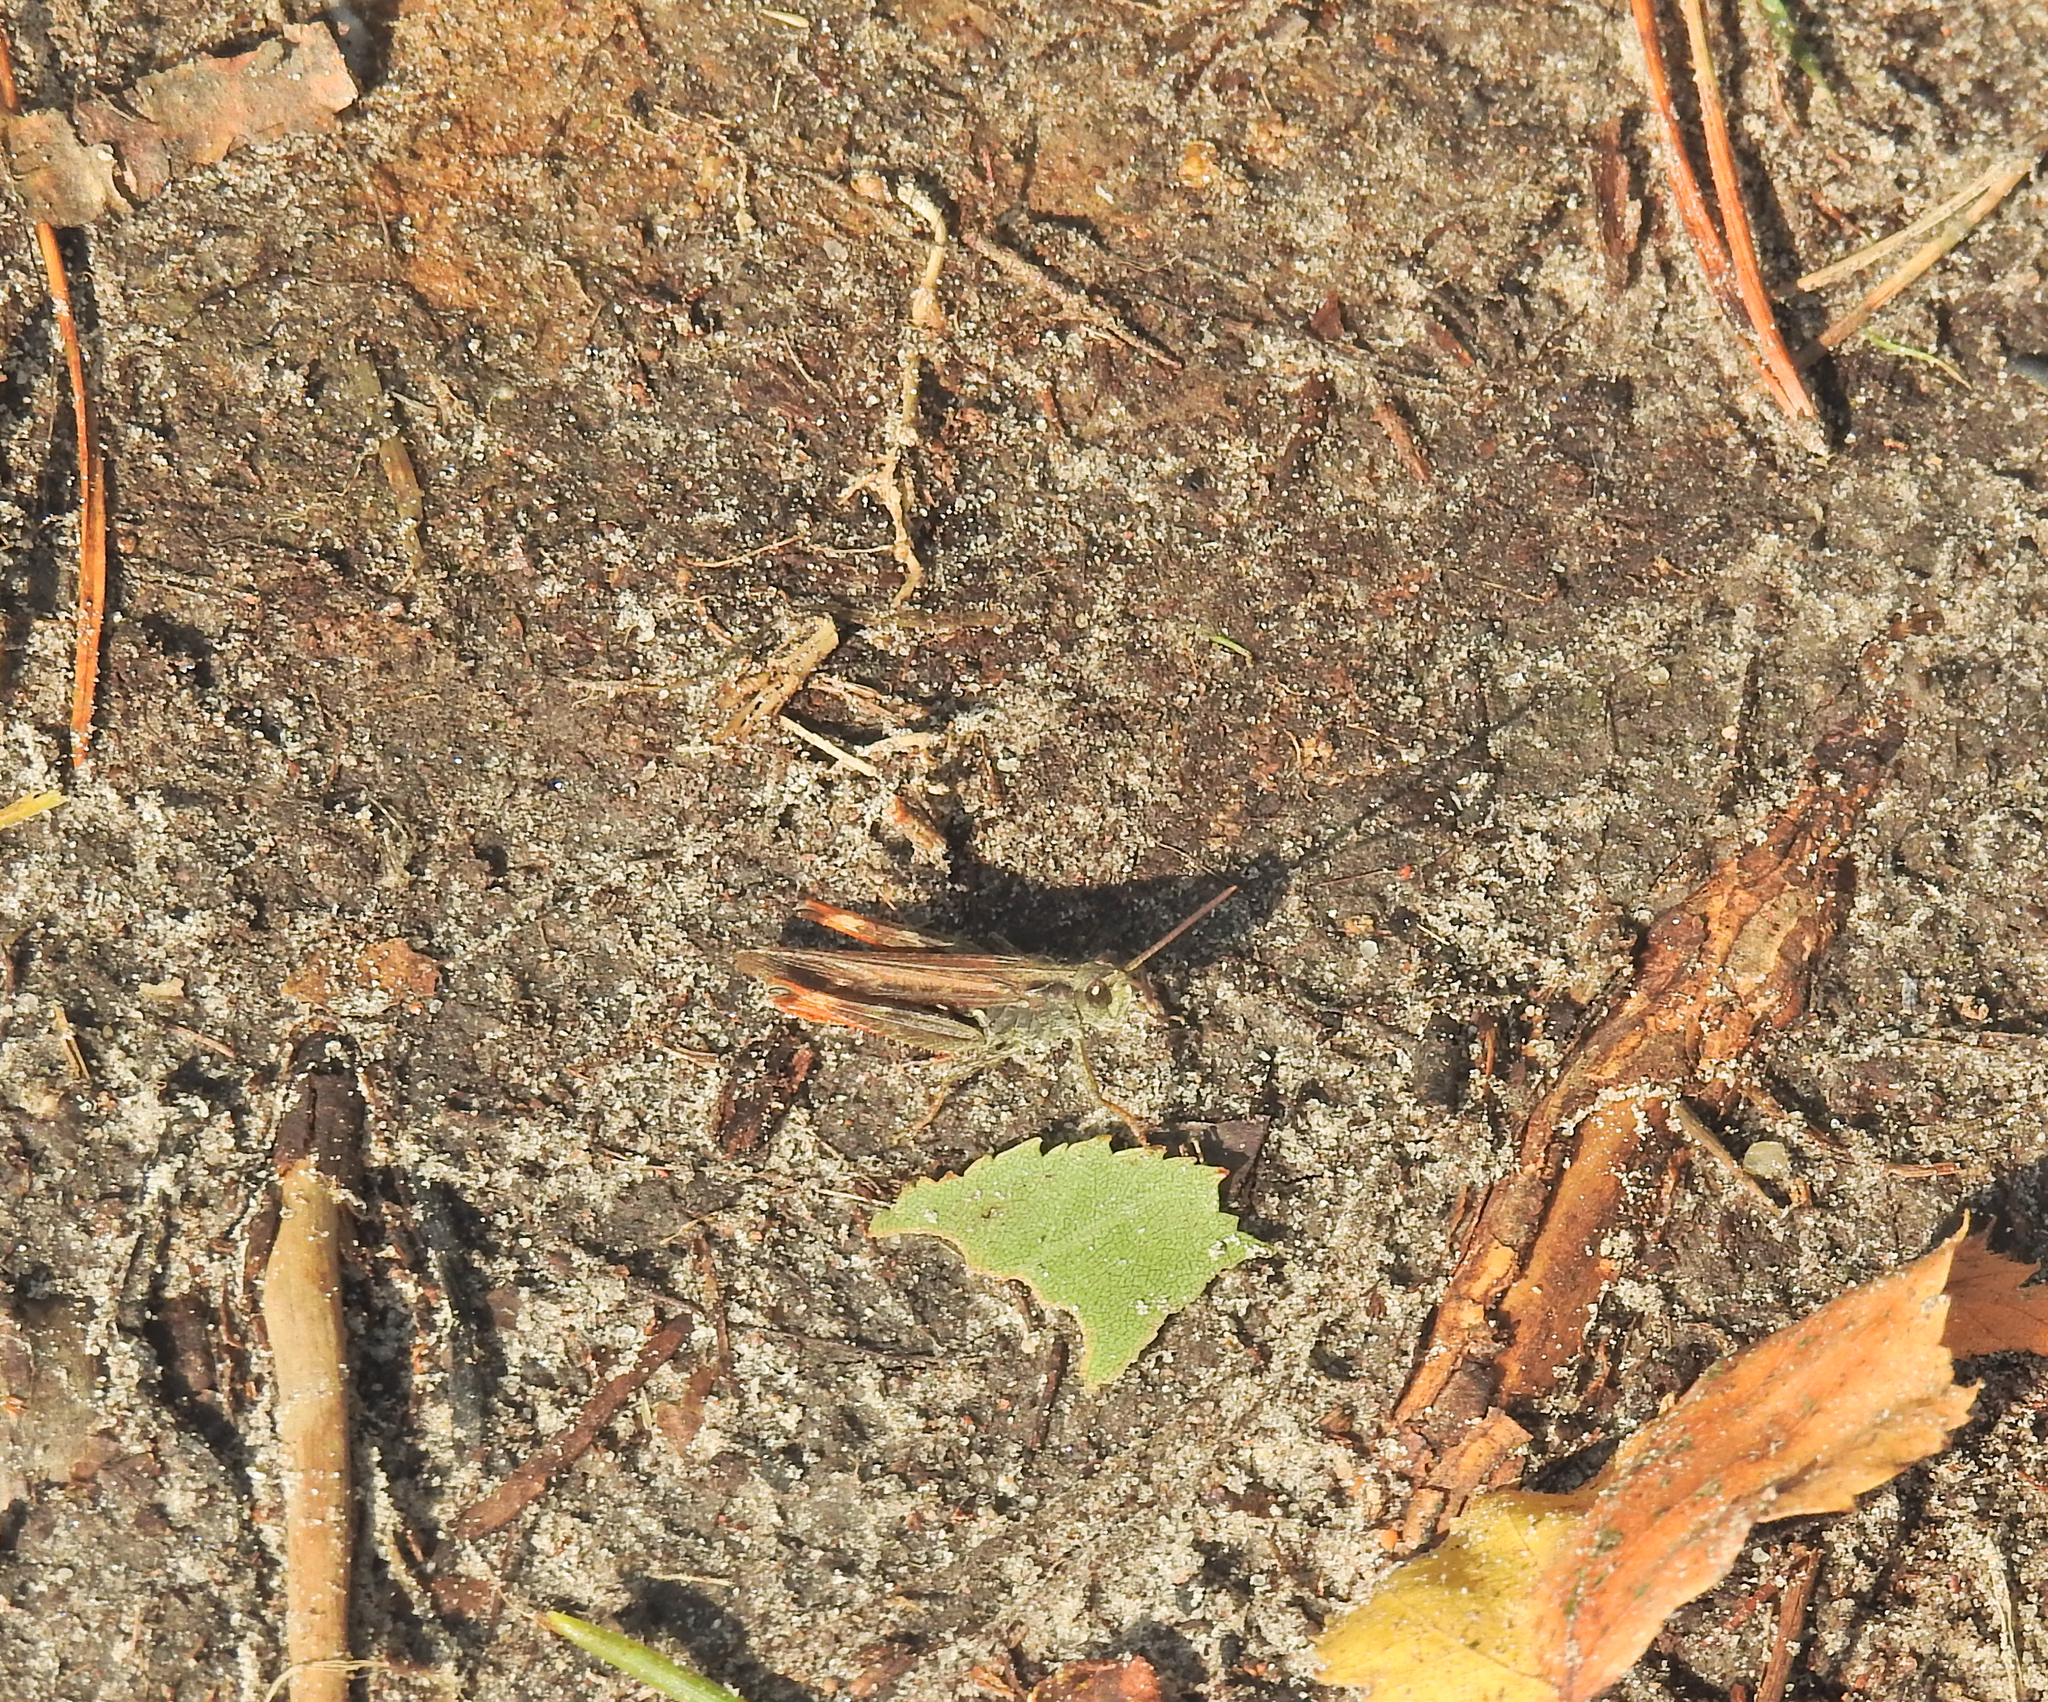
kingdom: Animalia
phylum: Arthropoda
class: Insecta
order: Orthoptera
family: Acrididae
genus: Glyptobothrus
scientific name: Glyptobothrus
